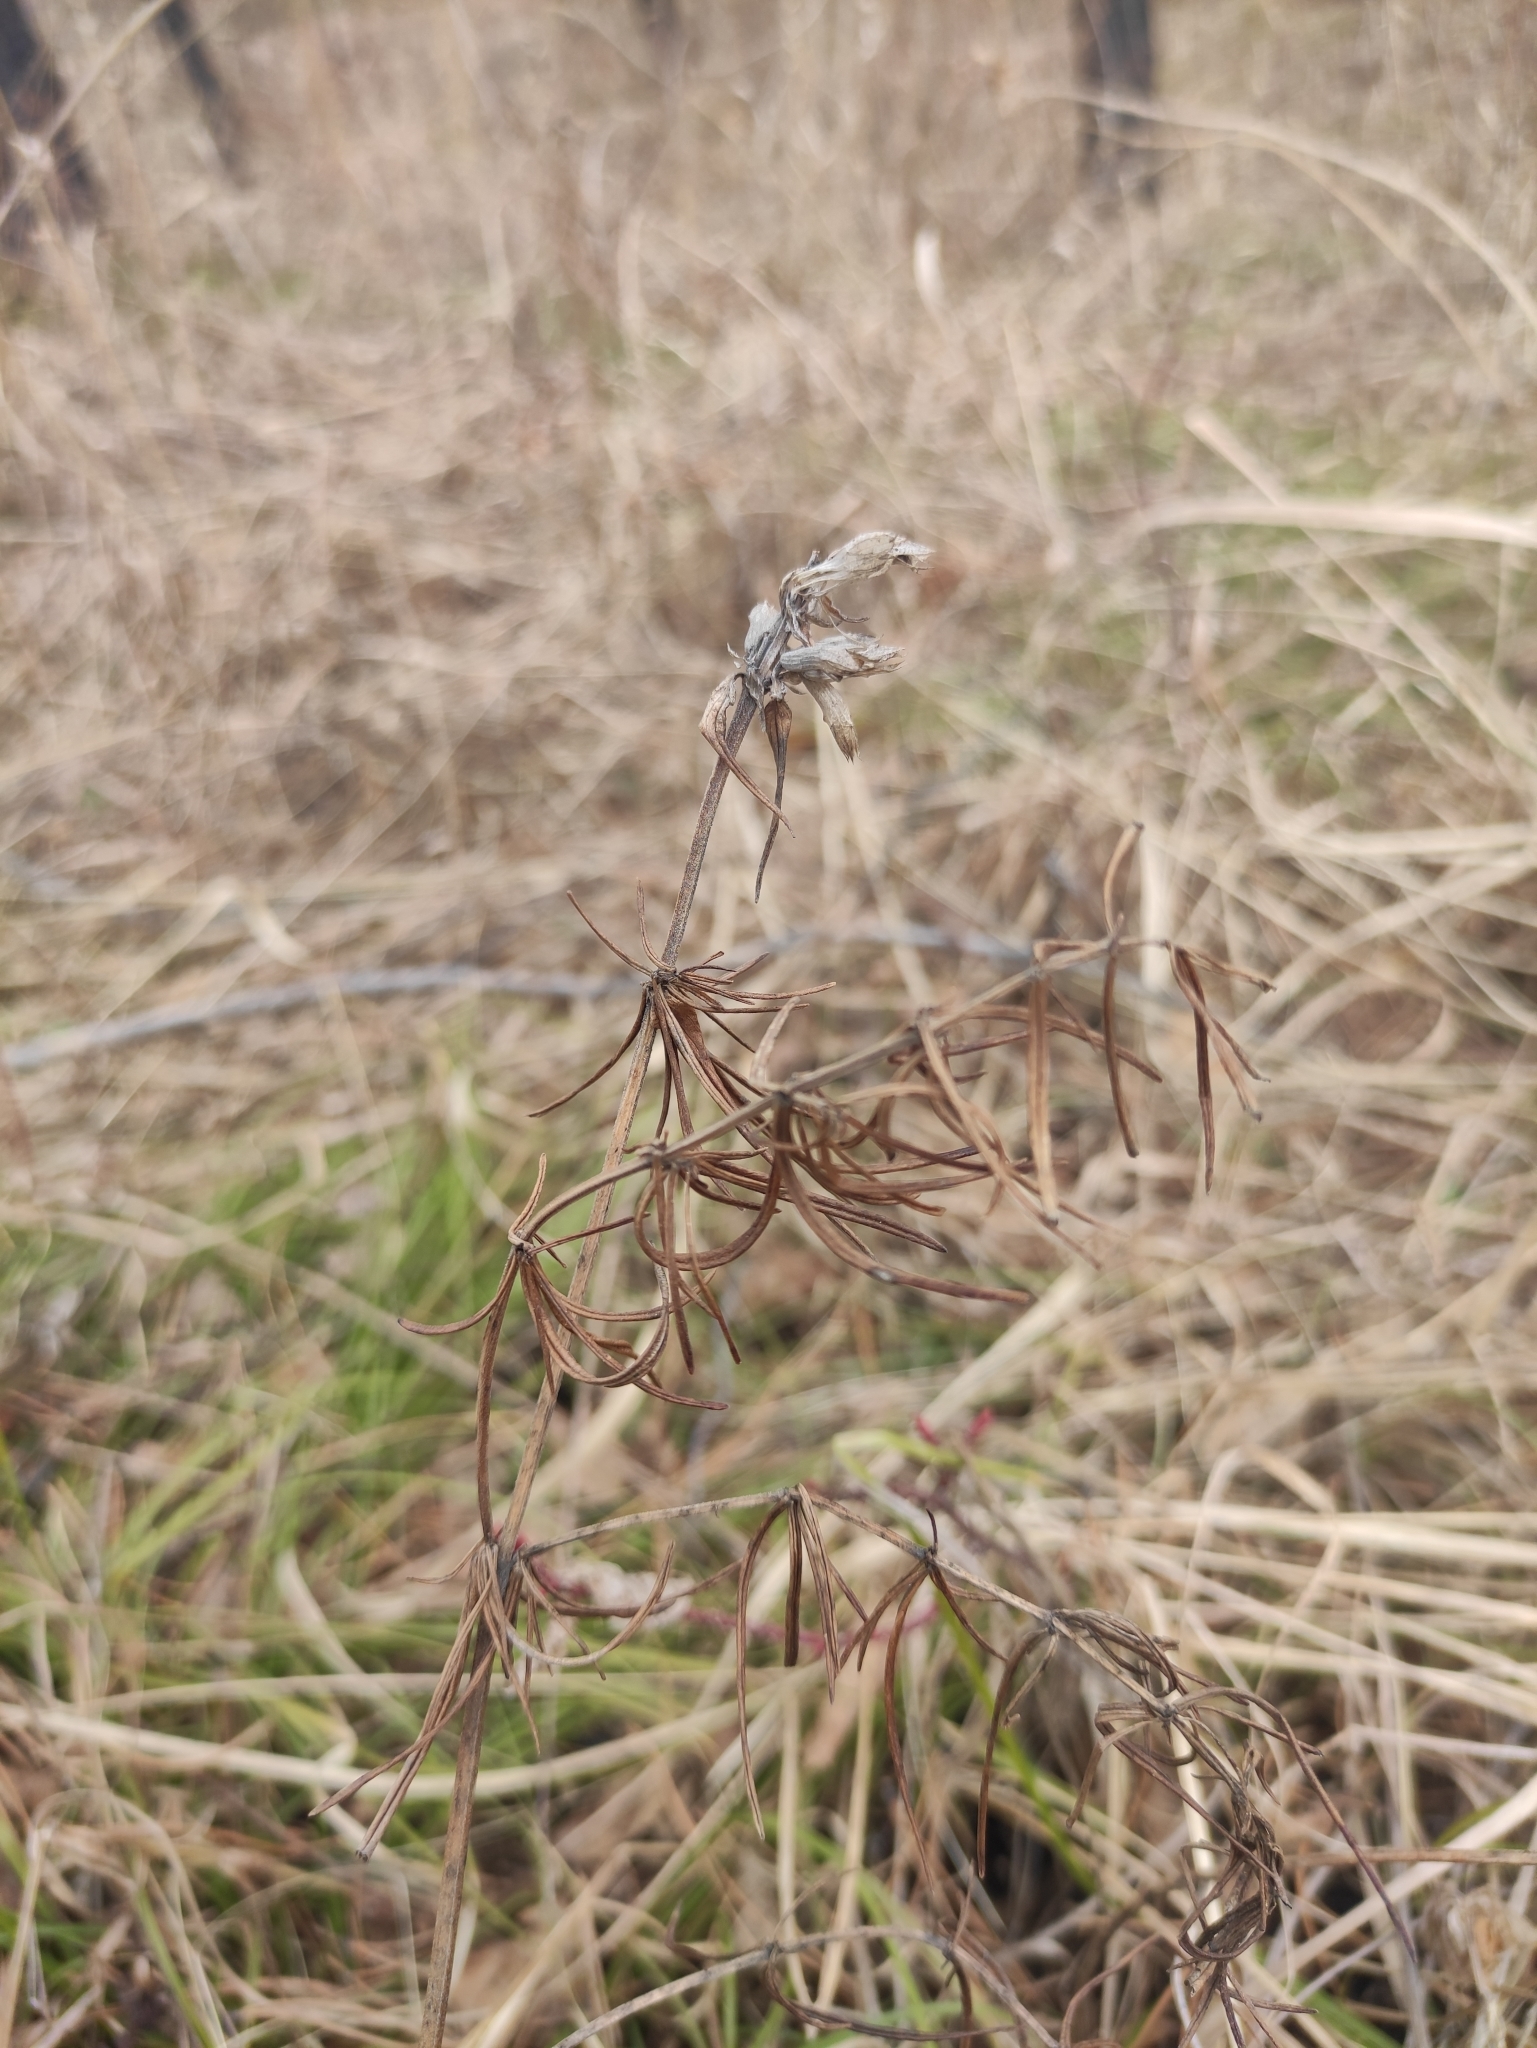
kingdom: Plantae
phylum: Tracheophyta
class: Magnoliopsida
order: Lamiales
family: Lamiaceae
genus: Dracocephalum
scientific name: Dracocephalum ruyschiana
